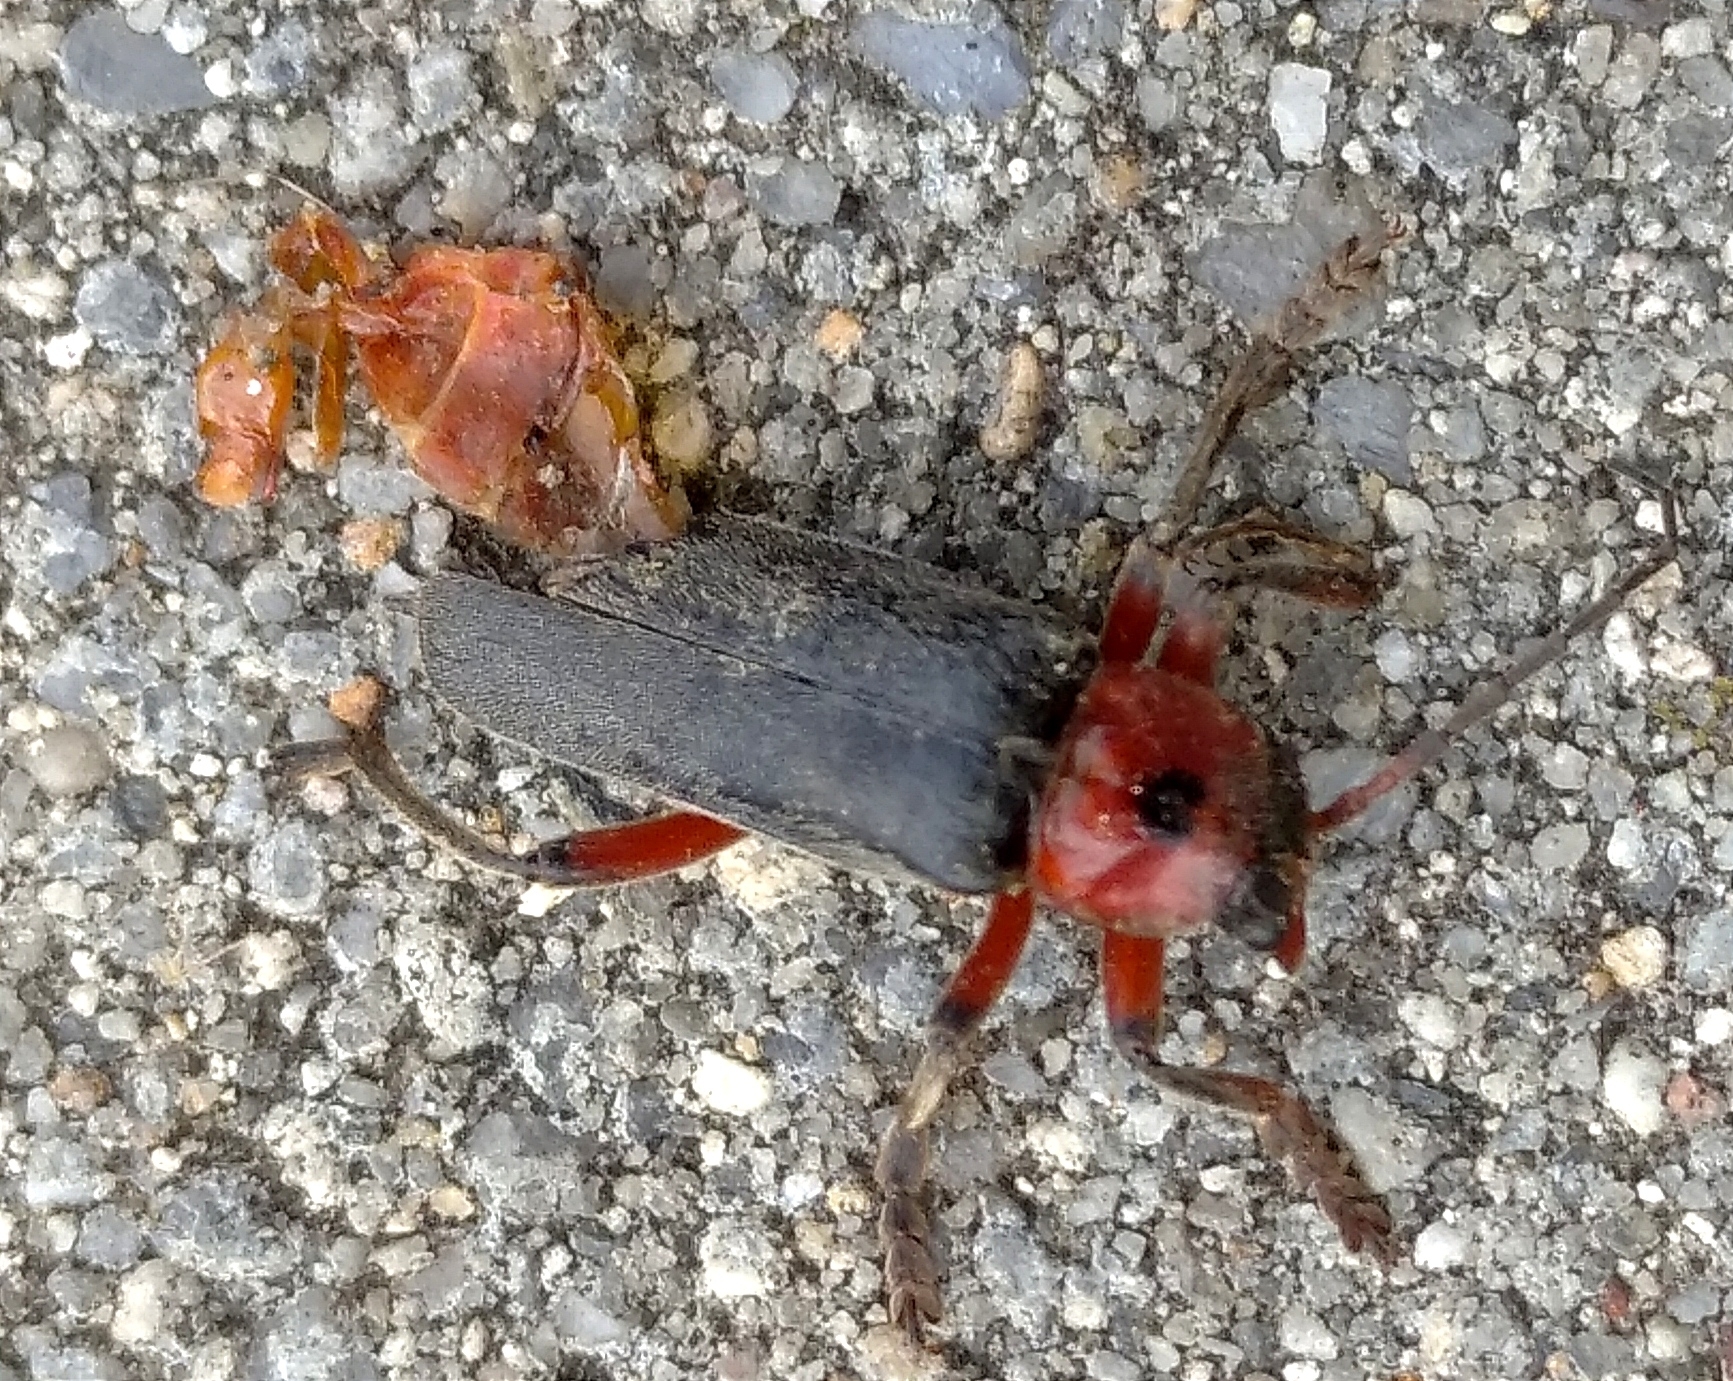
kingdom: Animalia
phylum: Arthropoda
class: Insecta
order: Coleoptera
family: Cantharidae
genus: Cantharis
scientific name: Cantharis rustica
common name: Soldier beetle
